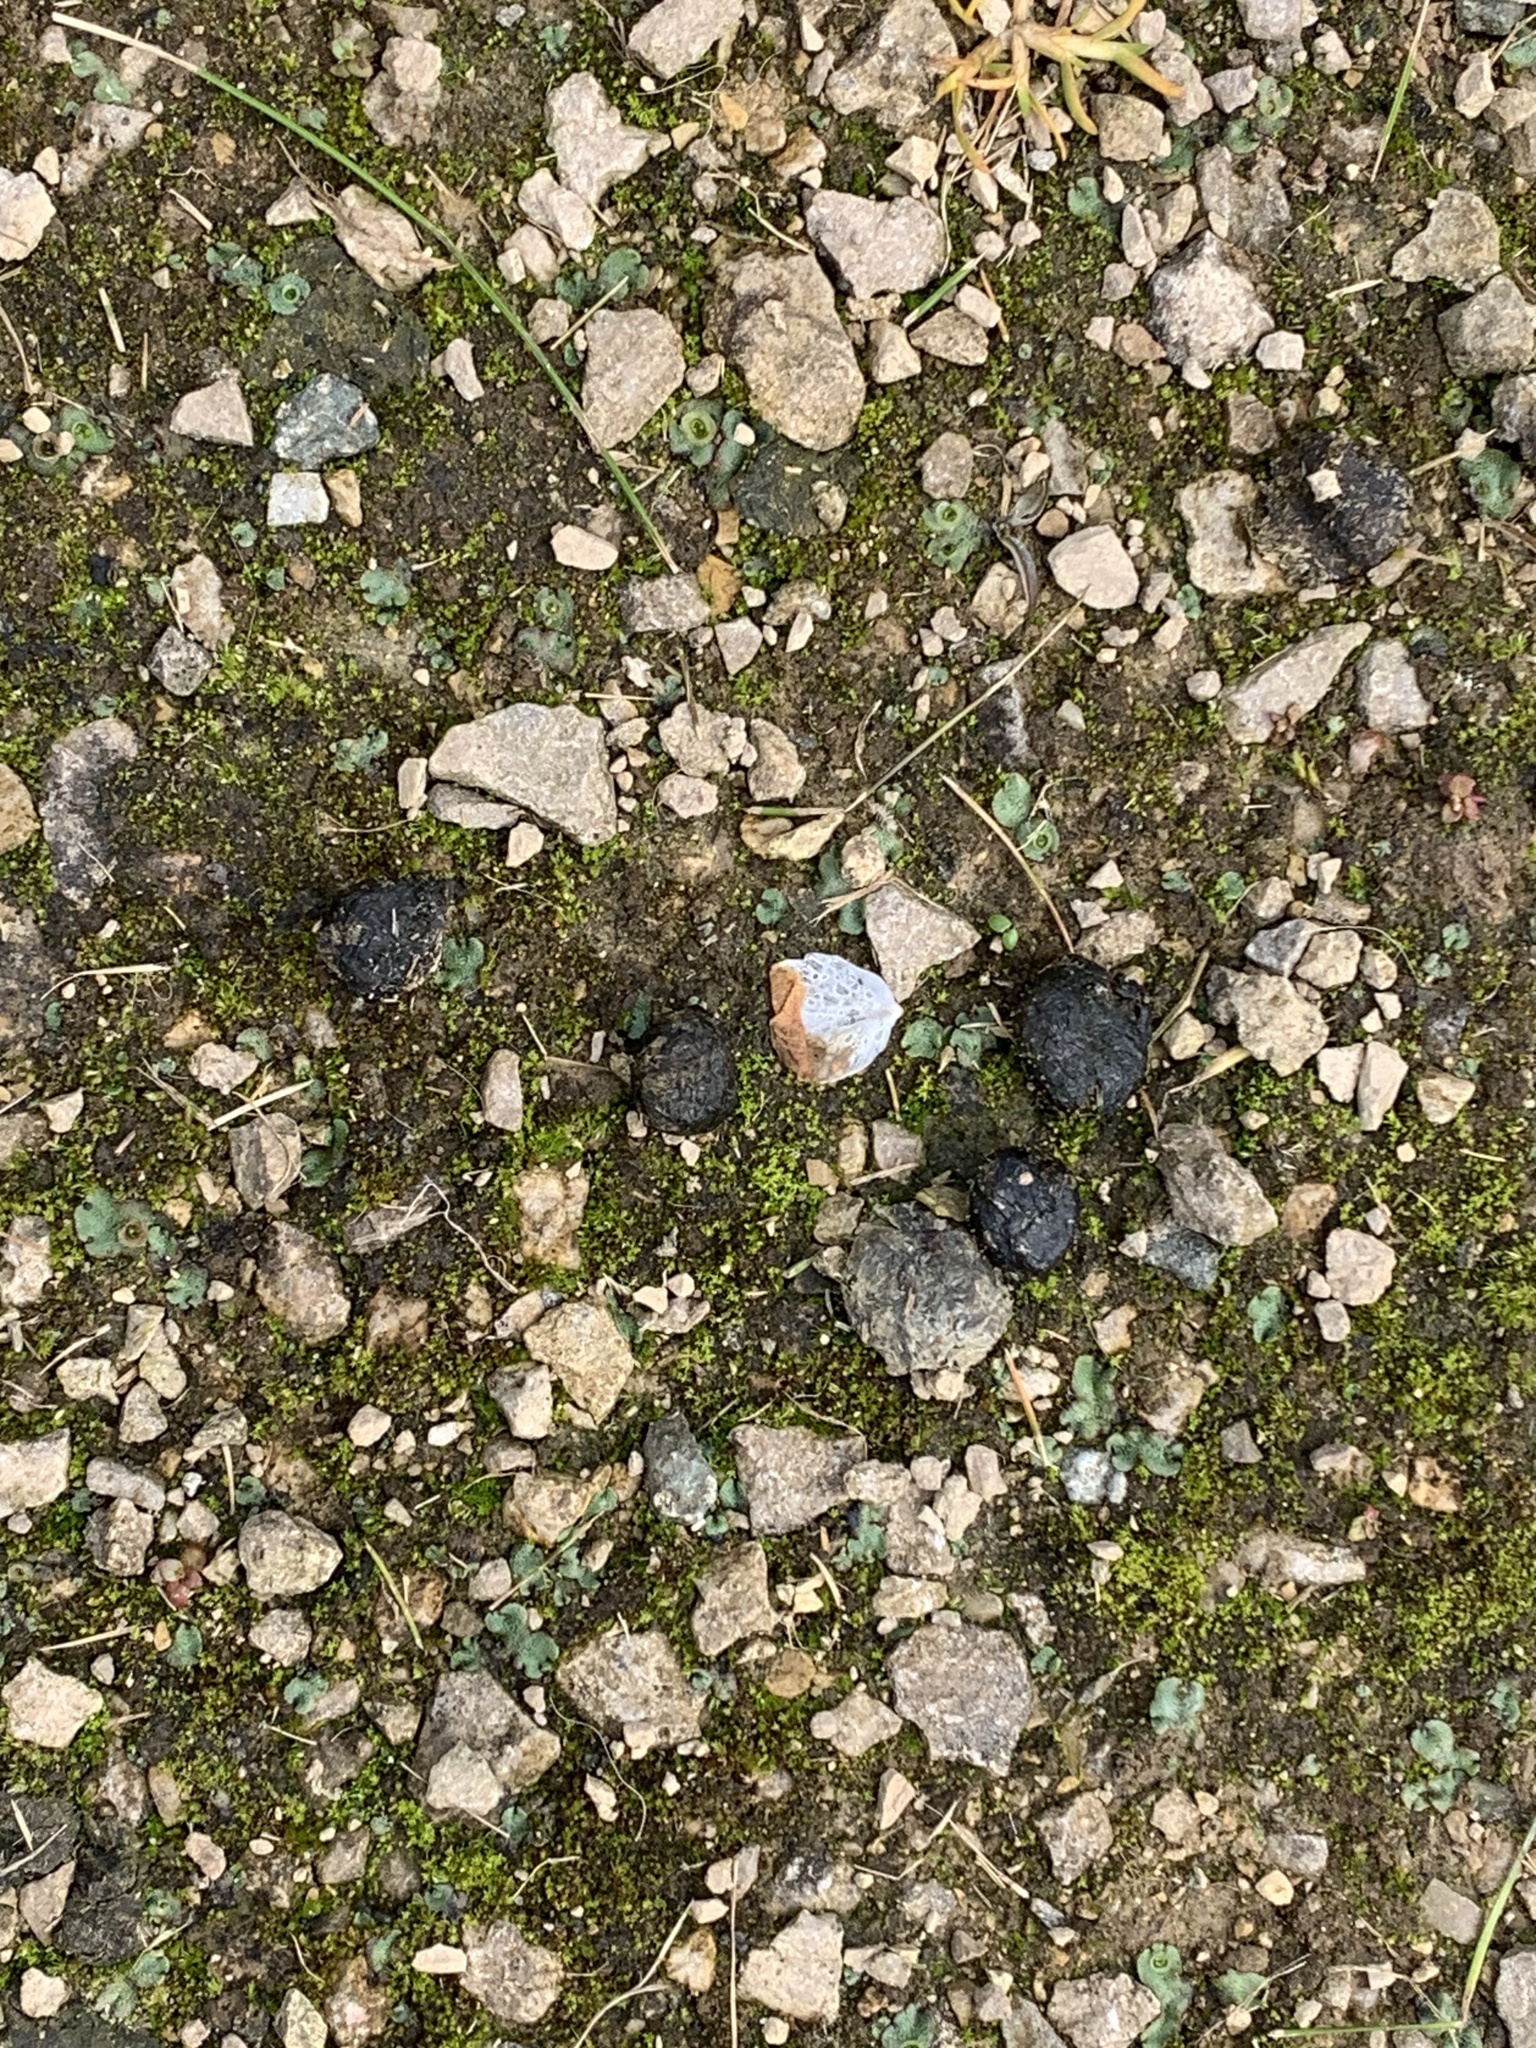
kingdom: Animalia
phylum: Chordata
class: Mammalia
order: Lagomorpha
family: Leporidae
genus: Oryctolagus
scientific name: Oryctolagus cuniculus
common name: European rabbit
